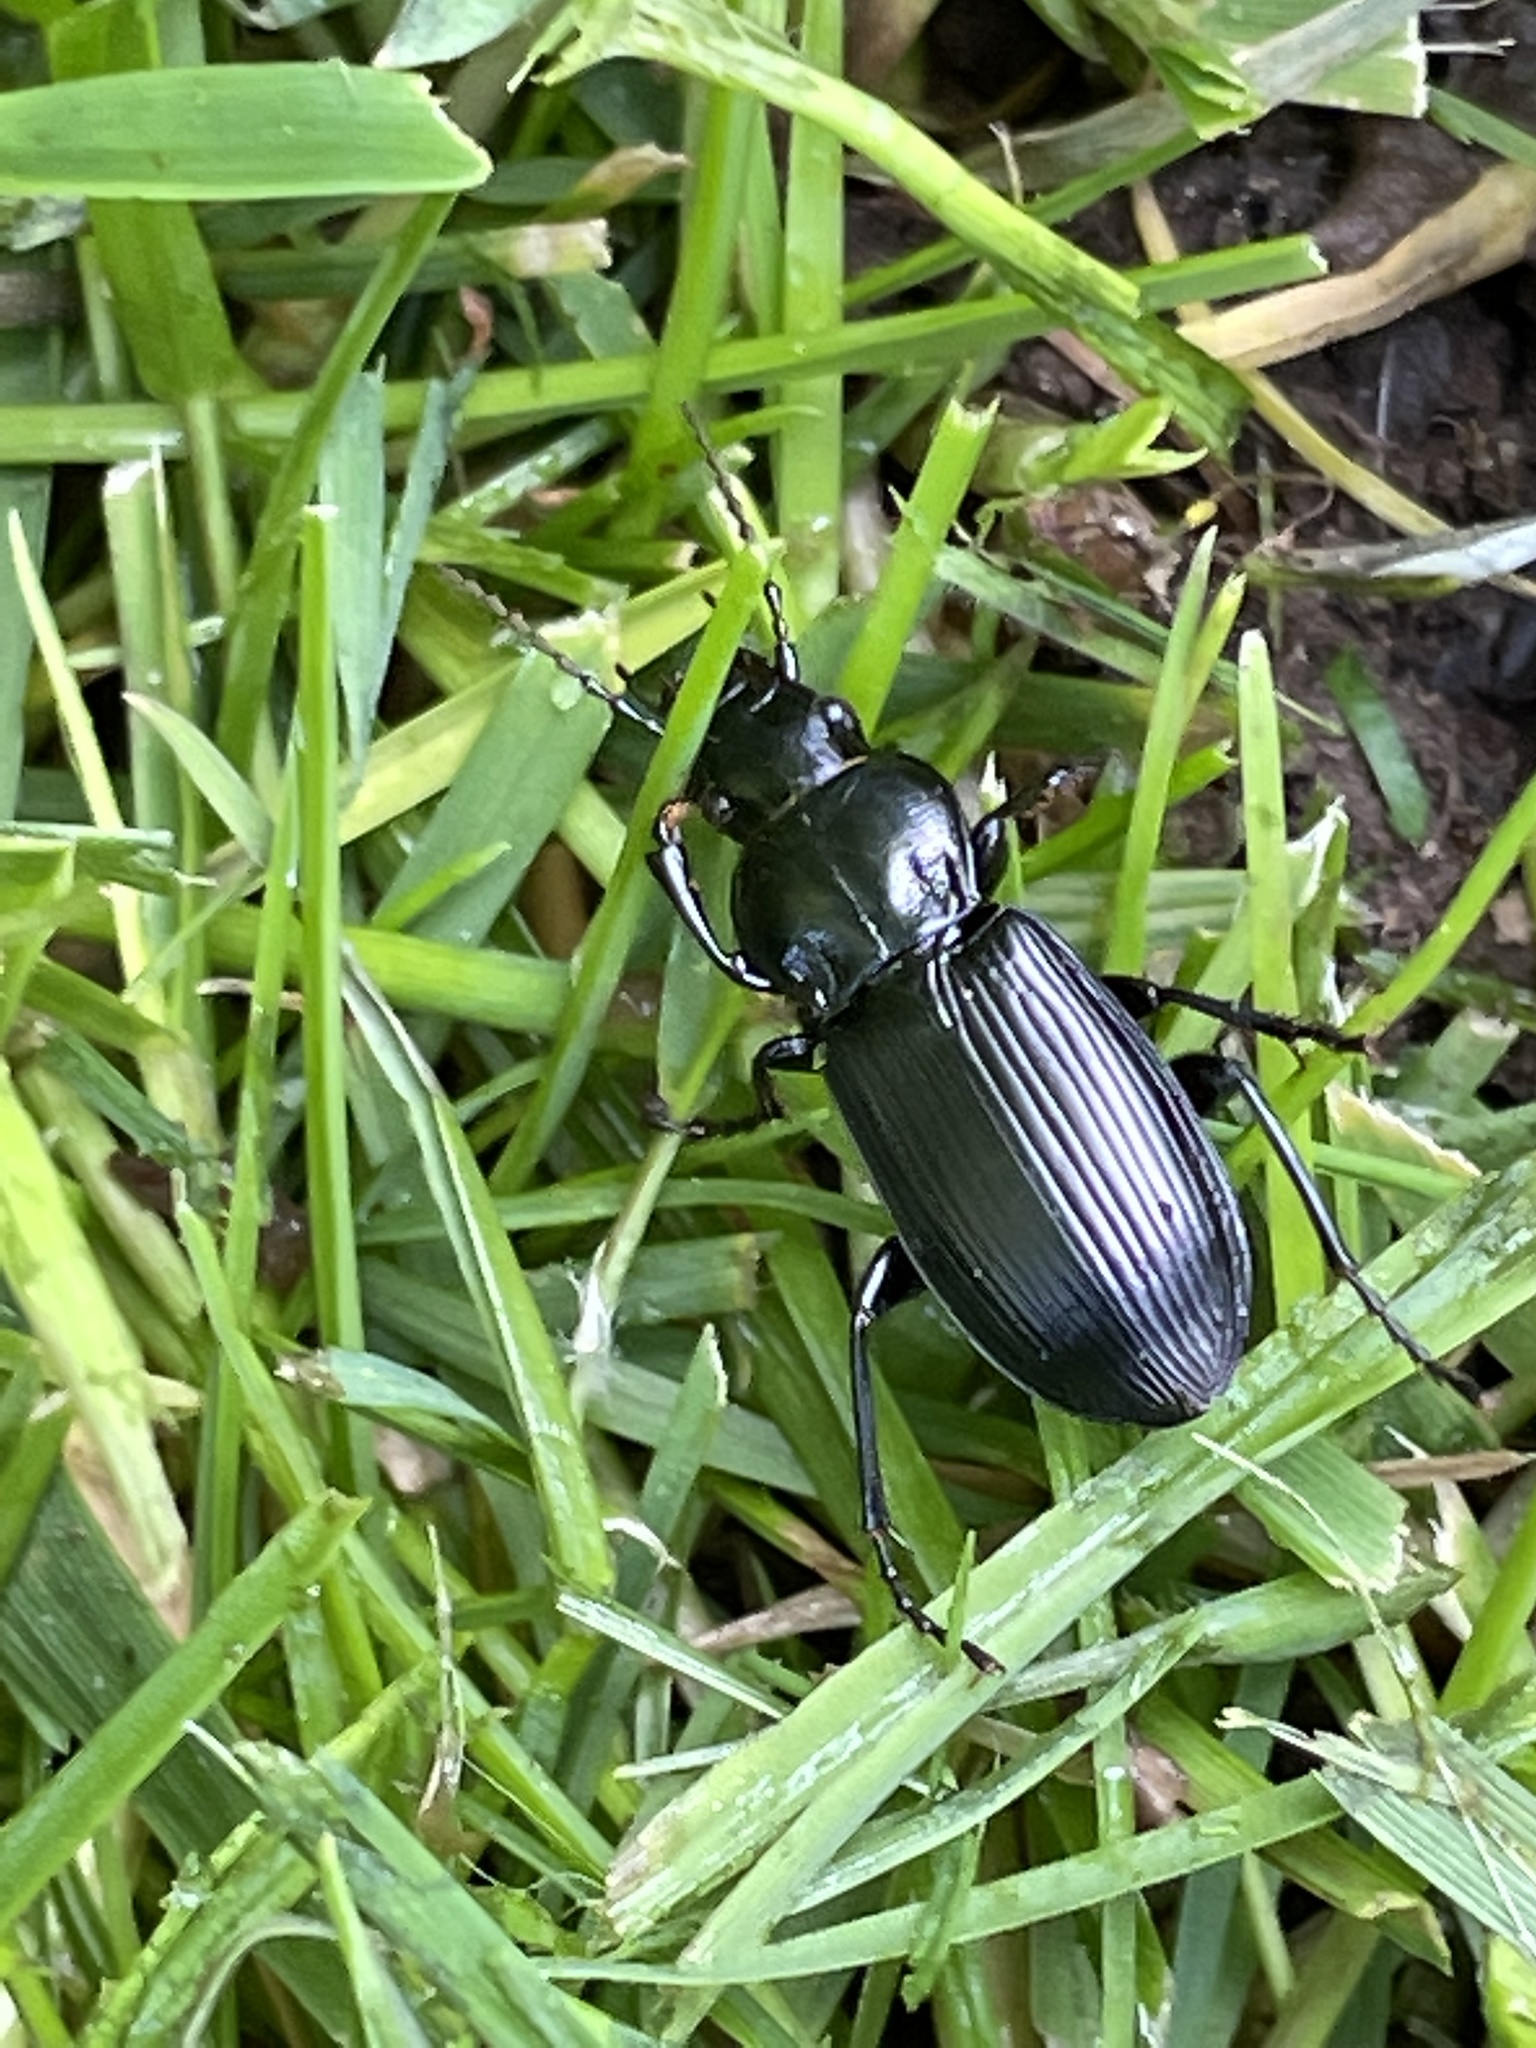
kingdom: Animalia
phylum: Arthropoda
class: Insecta
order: Coleoptera
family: Carabidae
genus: Pterostichus
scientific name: Pterostichus melanarius
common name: European dark harp ground beetle
